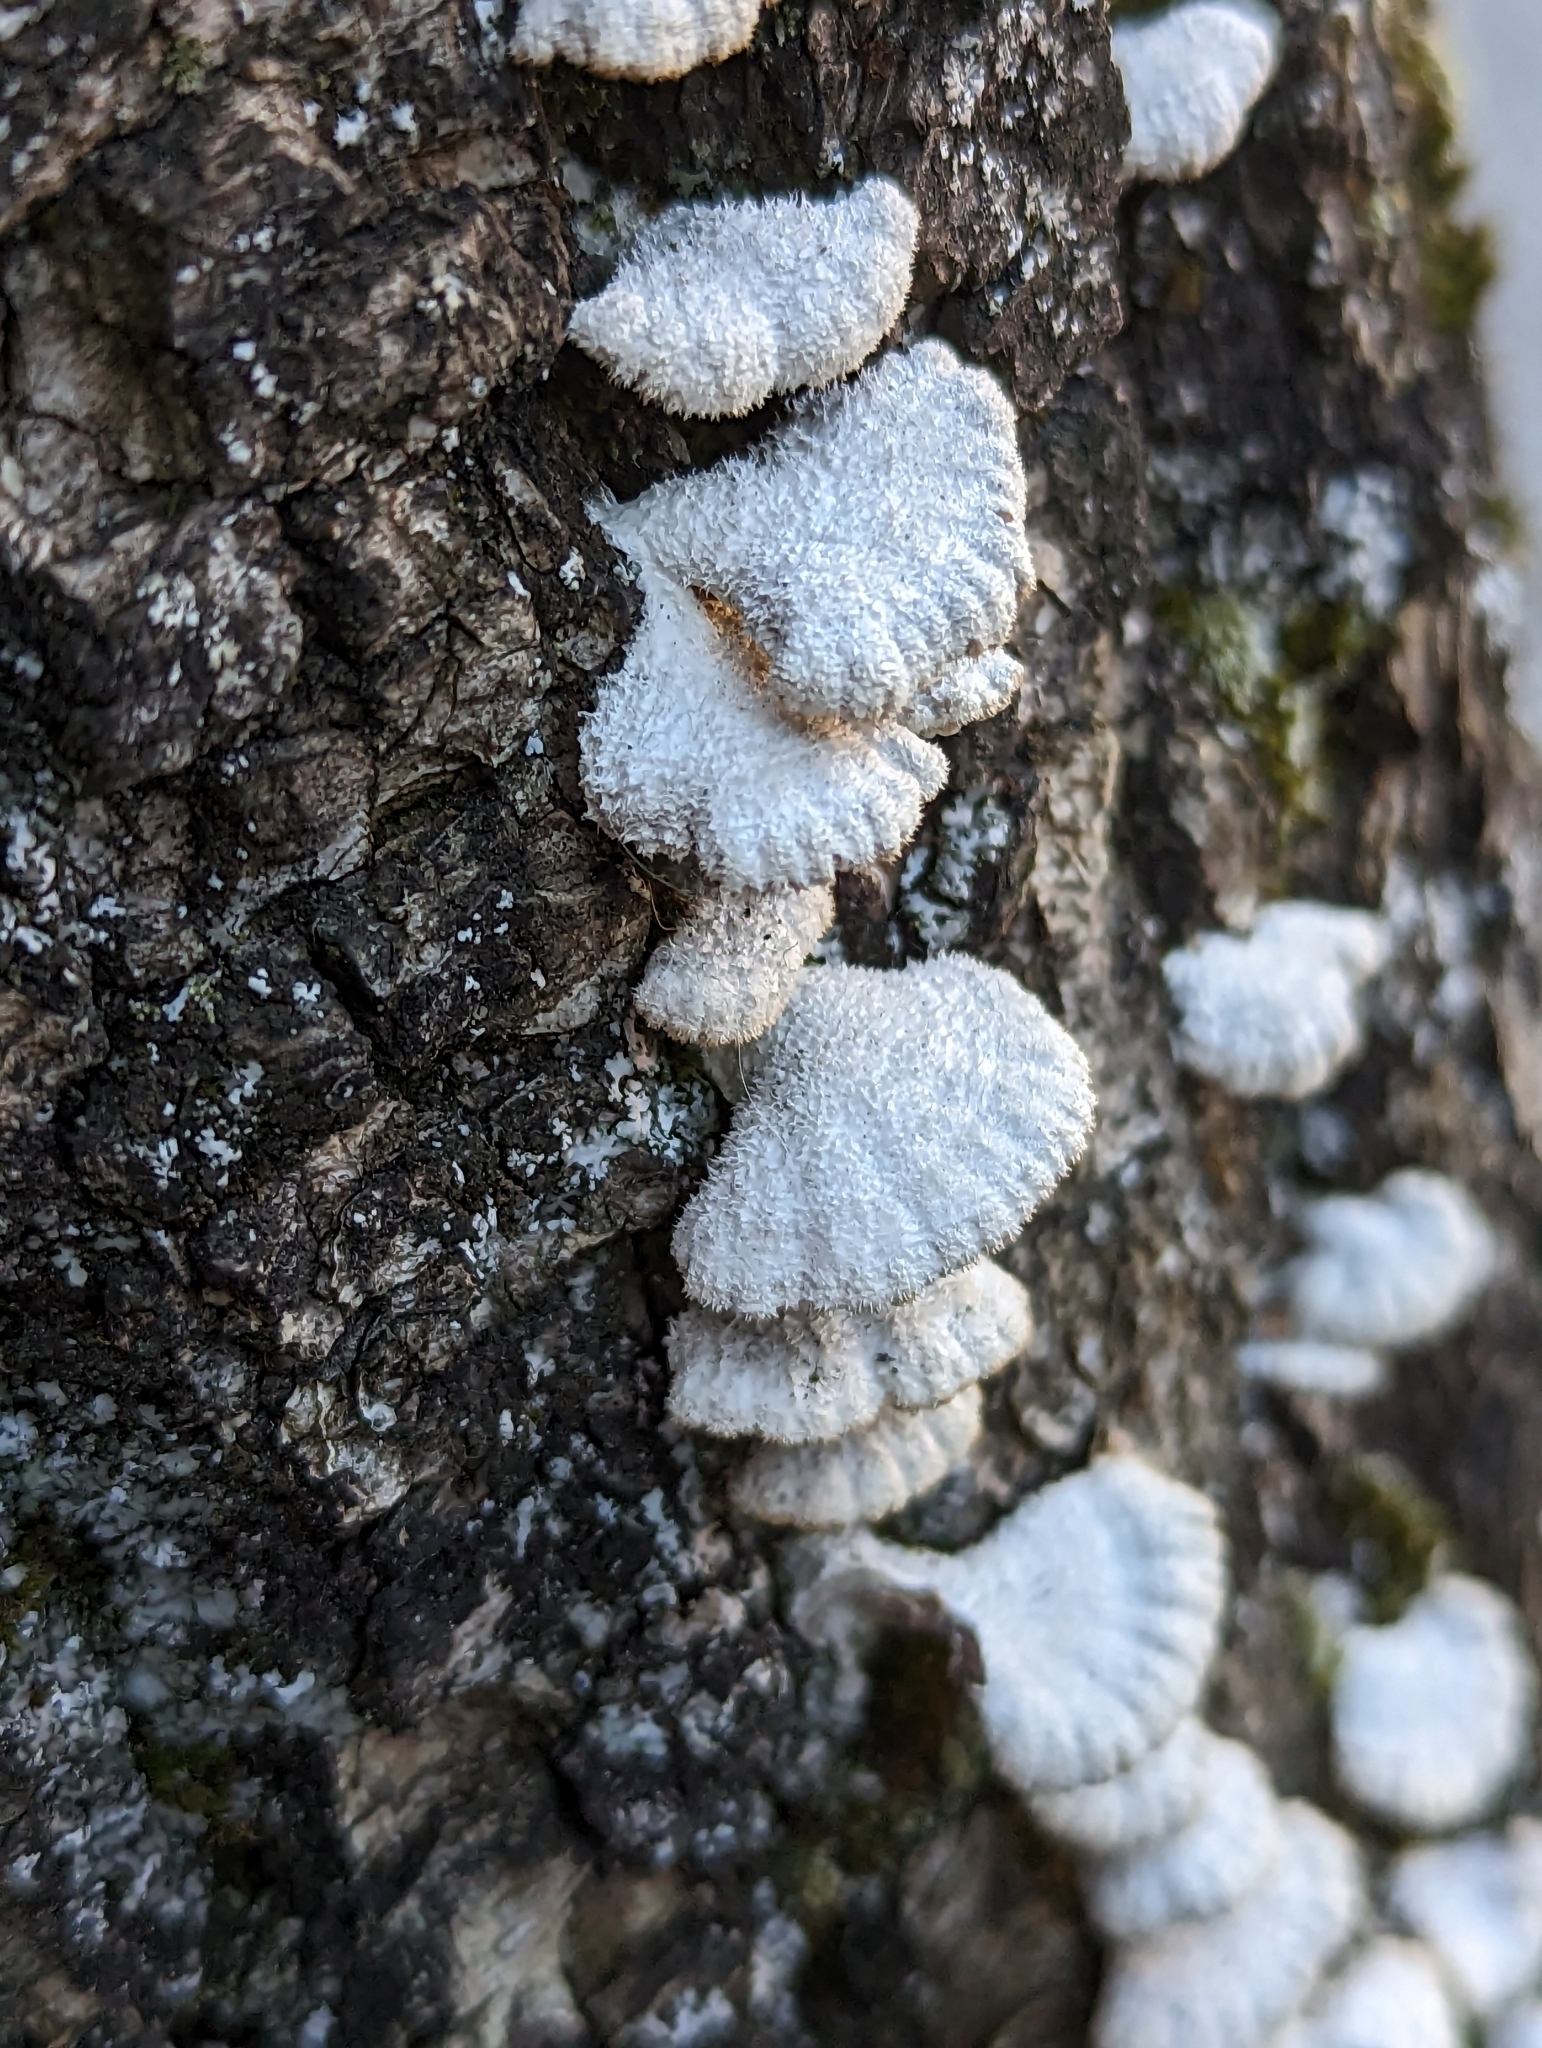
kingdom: Fungi
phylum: Basidiomycota
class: Agaricomycetes
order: Agaricales
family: Schizophyllaceae
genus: Schizophyllum
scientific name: Schizophyllum commune
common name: Common porecrust
